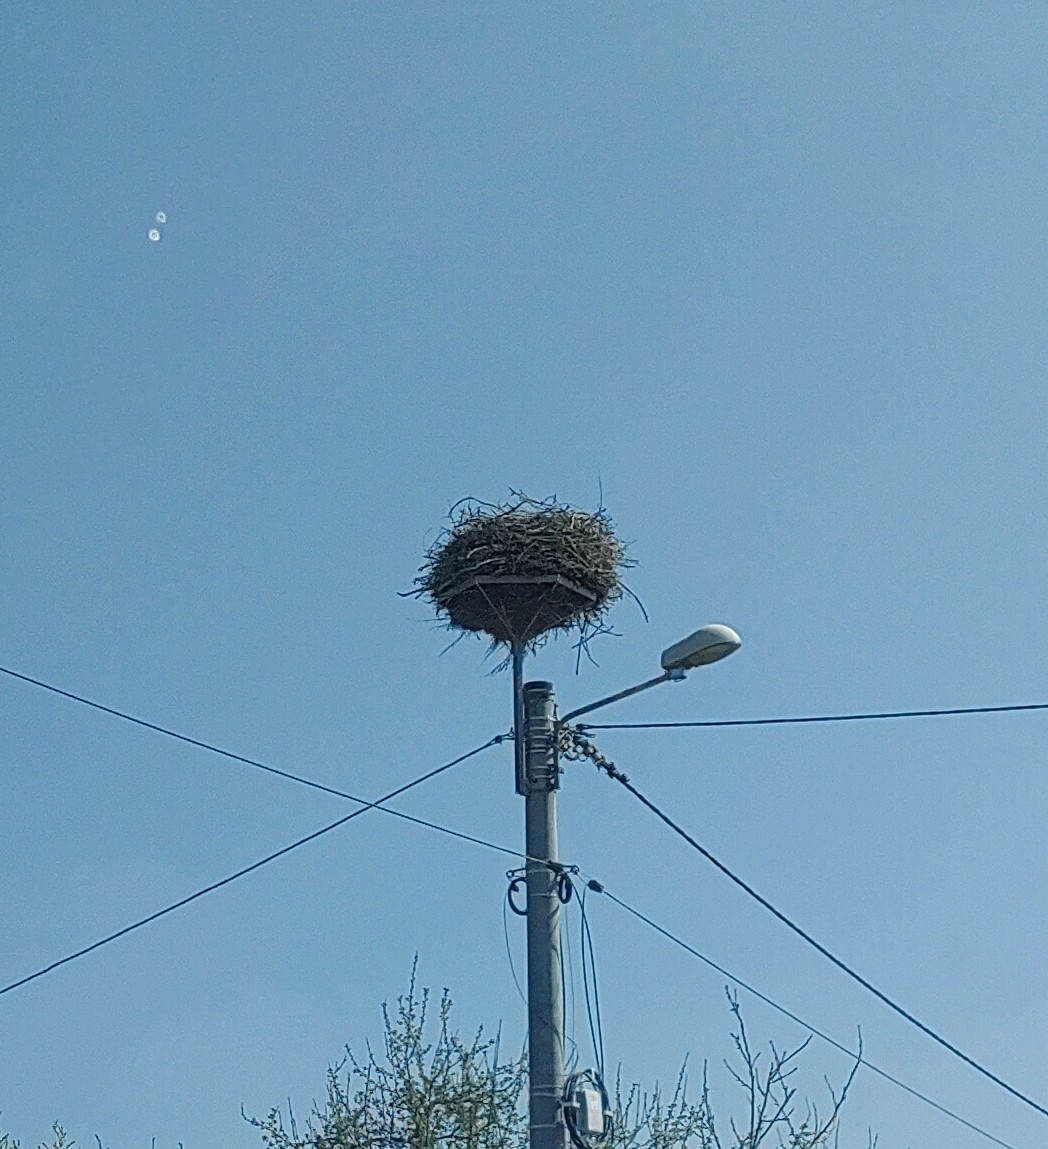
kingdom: Animalia
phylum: Chordata
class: Aves
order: Ciconiiformes
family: Ciconiidae
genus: Ciconia
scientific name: Ciconia ciconia
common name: White stork
